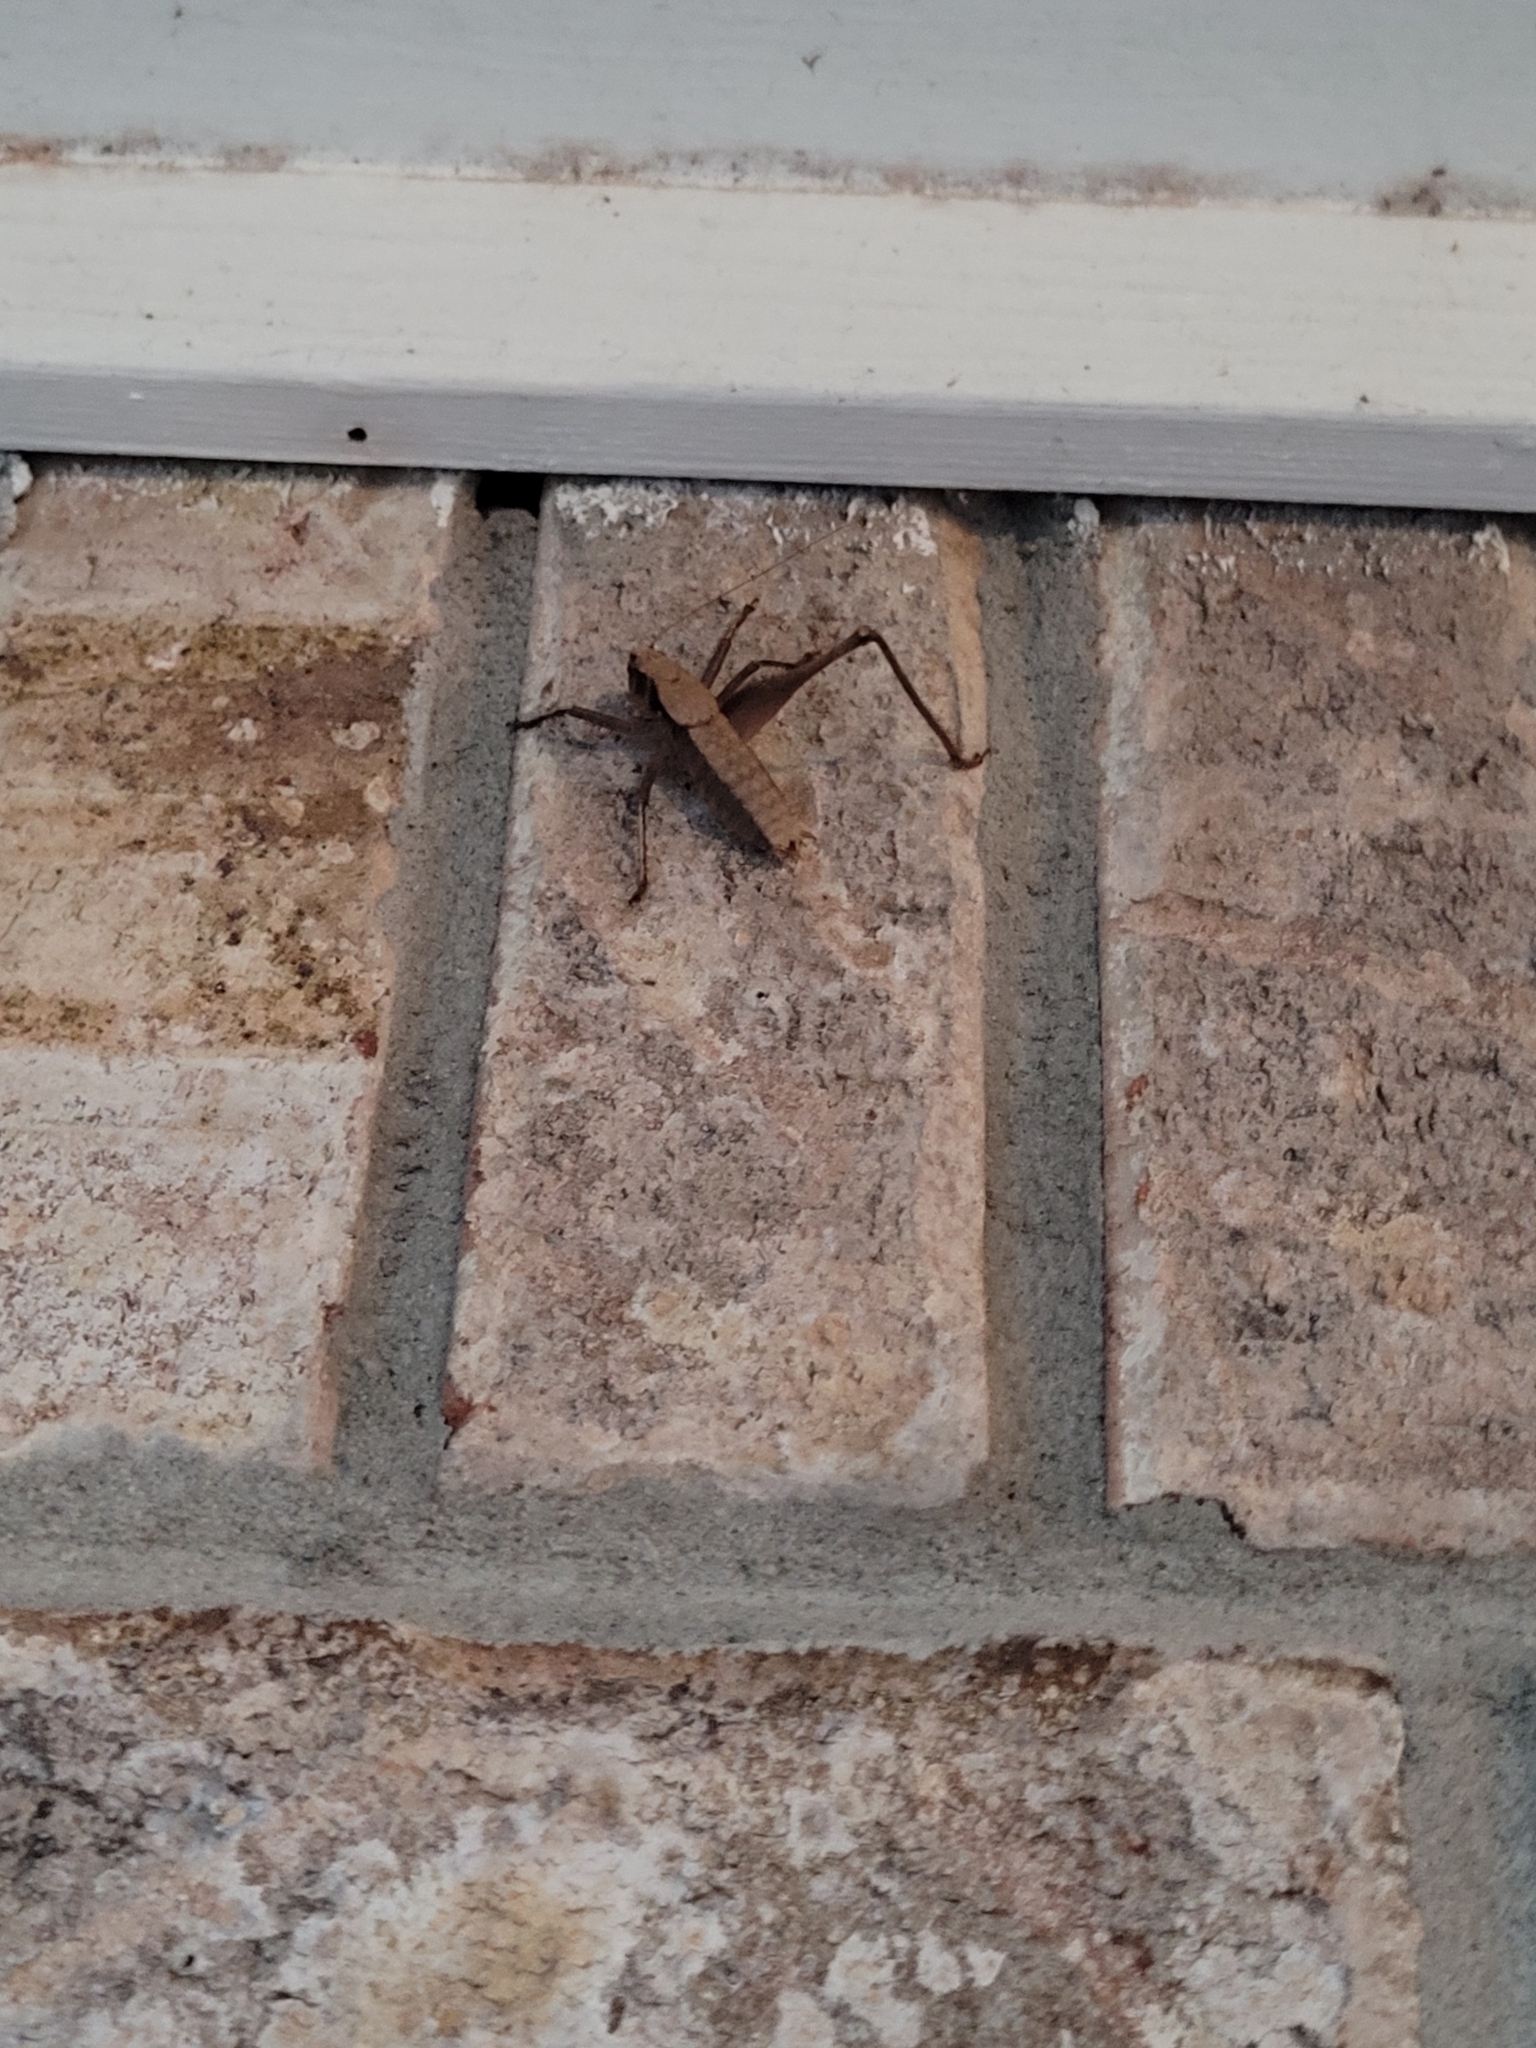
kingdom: Animalia
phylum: Arthropoda
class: Insecta
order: Orthoptera
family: Tettigoniidae
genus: Atlanticus
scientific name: Atlanticus gibbosus
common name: Robust shield-bearer
